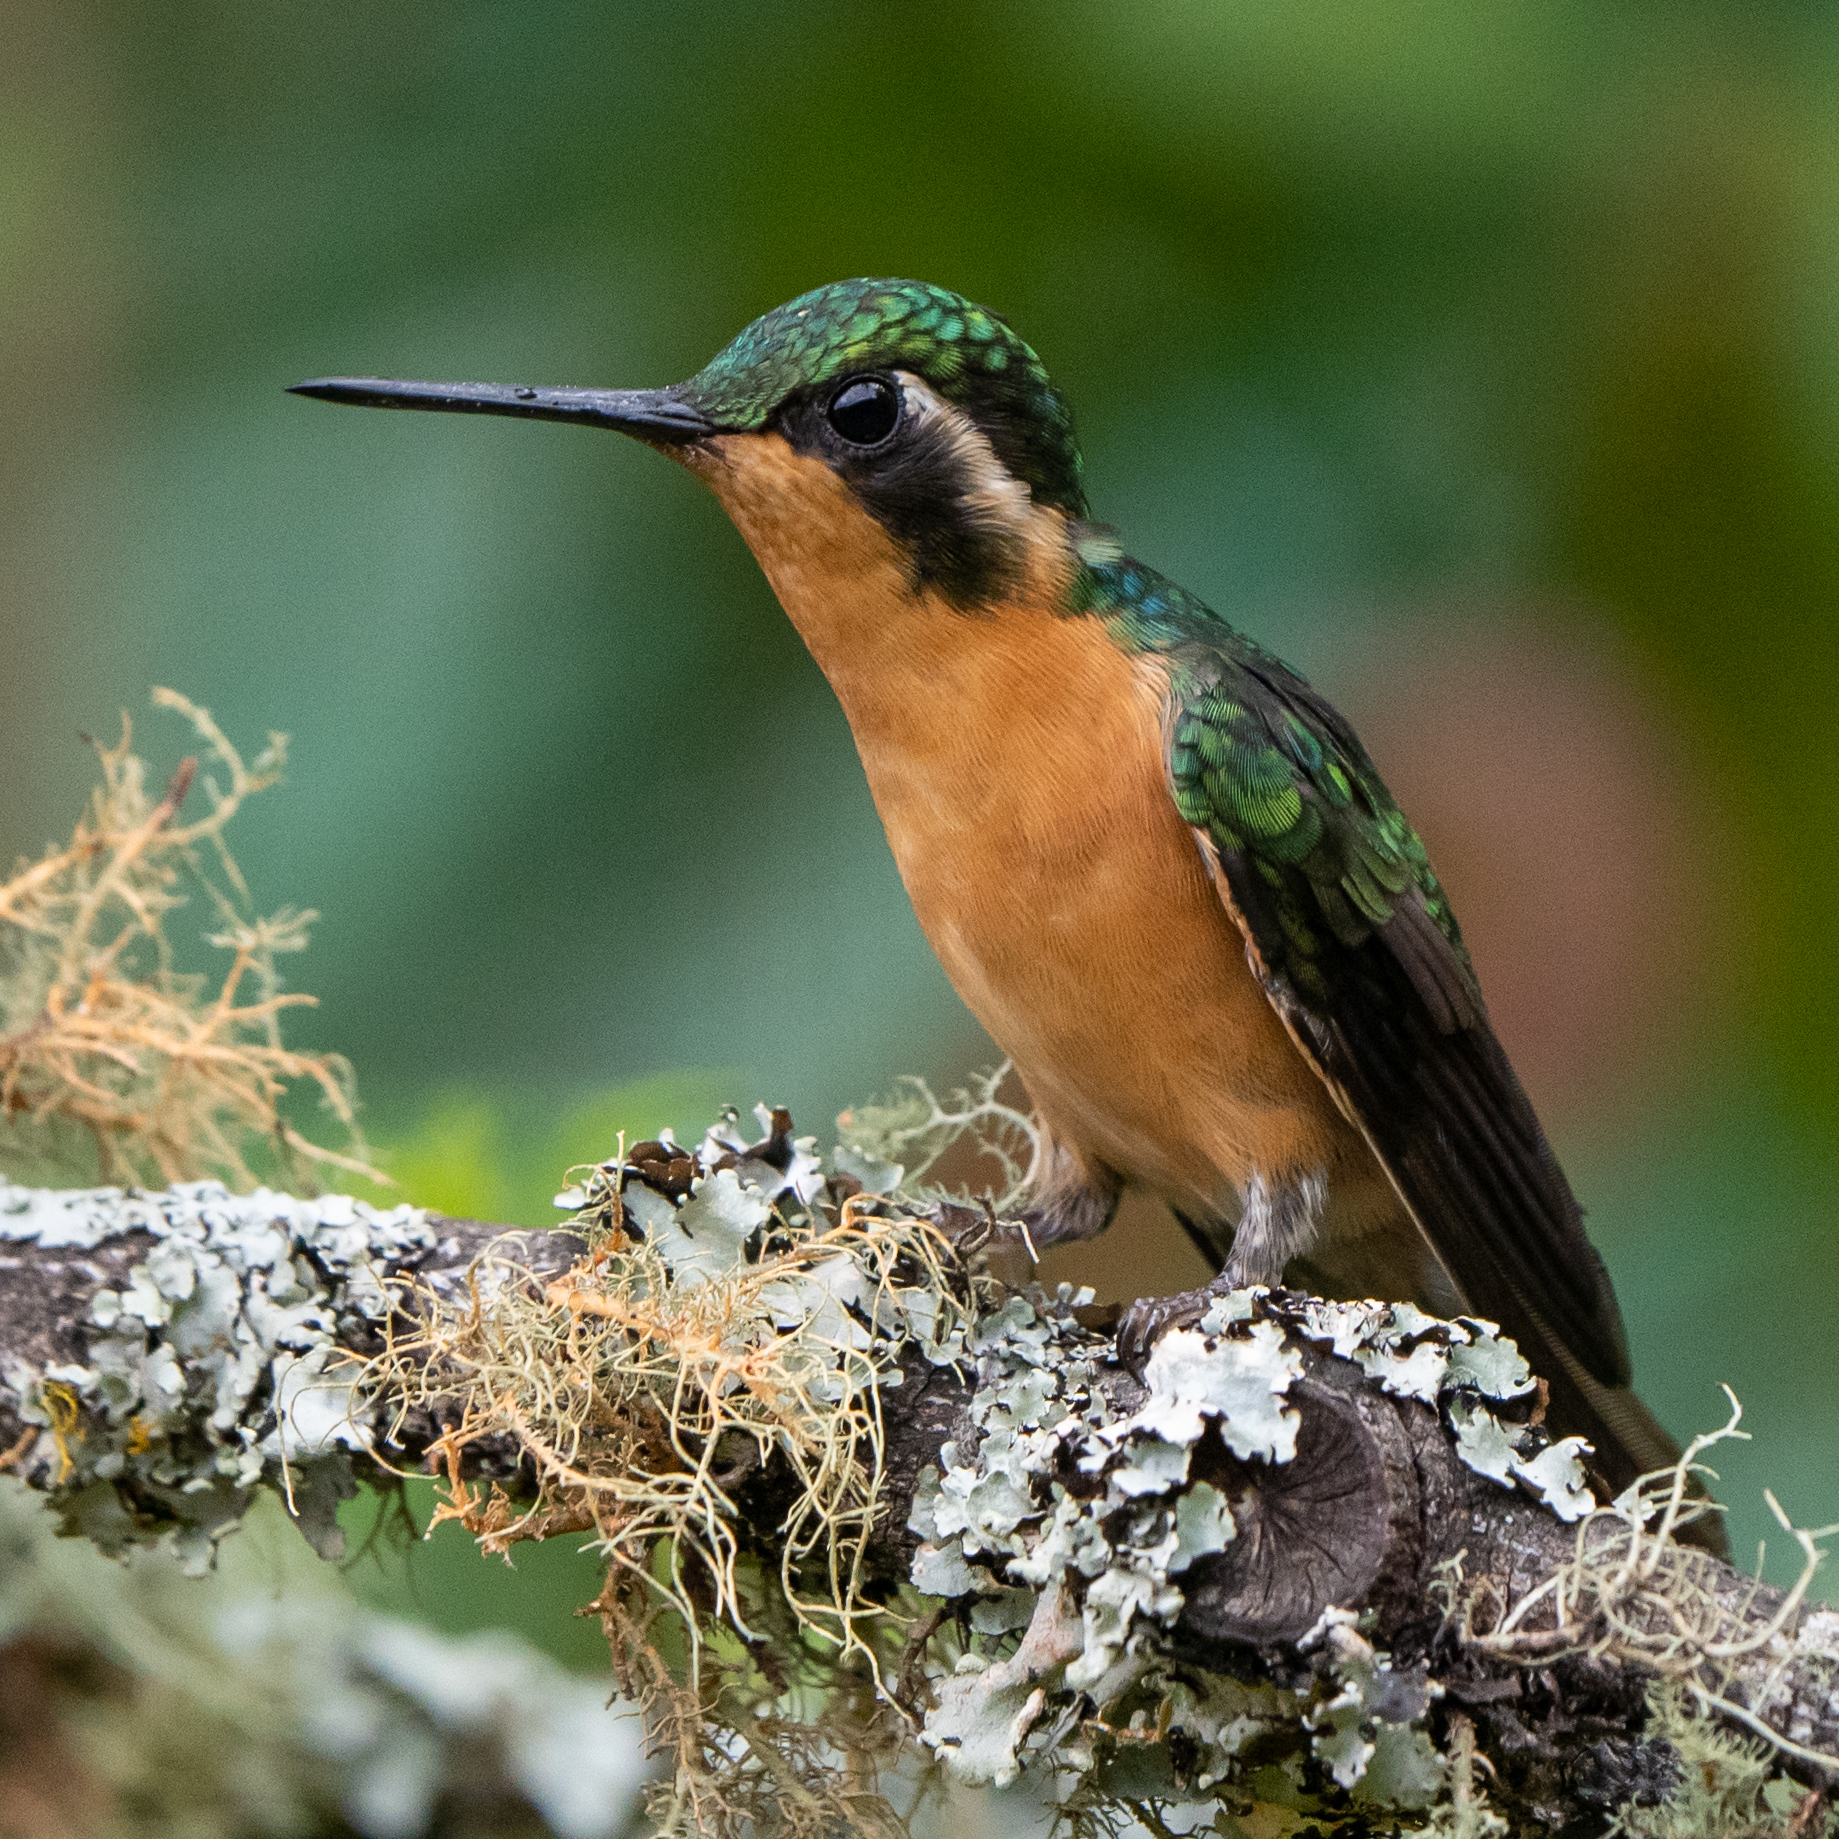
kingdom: Animalia
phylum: Chordata
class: Aves
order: Apodiformes
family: Trochilidae
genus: Lampornis
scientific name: Lampornis castaneoventris
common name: White-throated mountain-gem
